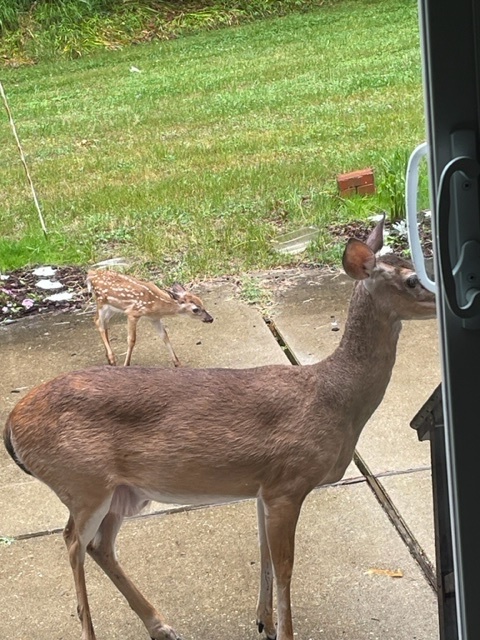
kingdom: Animalia
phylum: Chordata
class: Mammalia
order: Artiodactyla
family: Cervidae
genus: Odocoileus
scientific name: Odocoileus virginianus
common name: White-tailed deer
